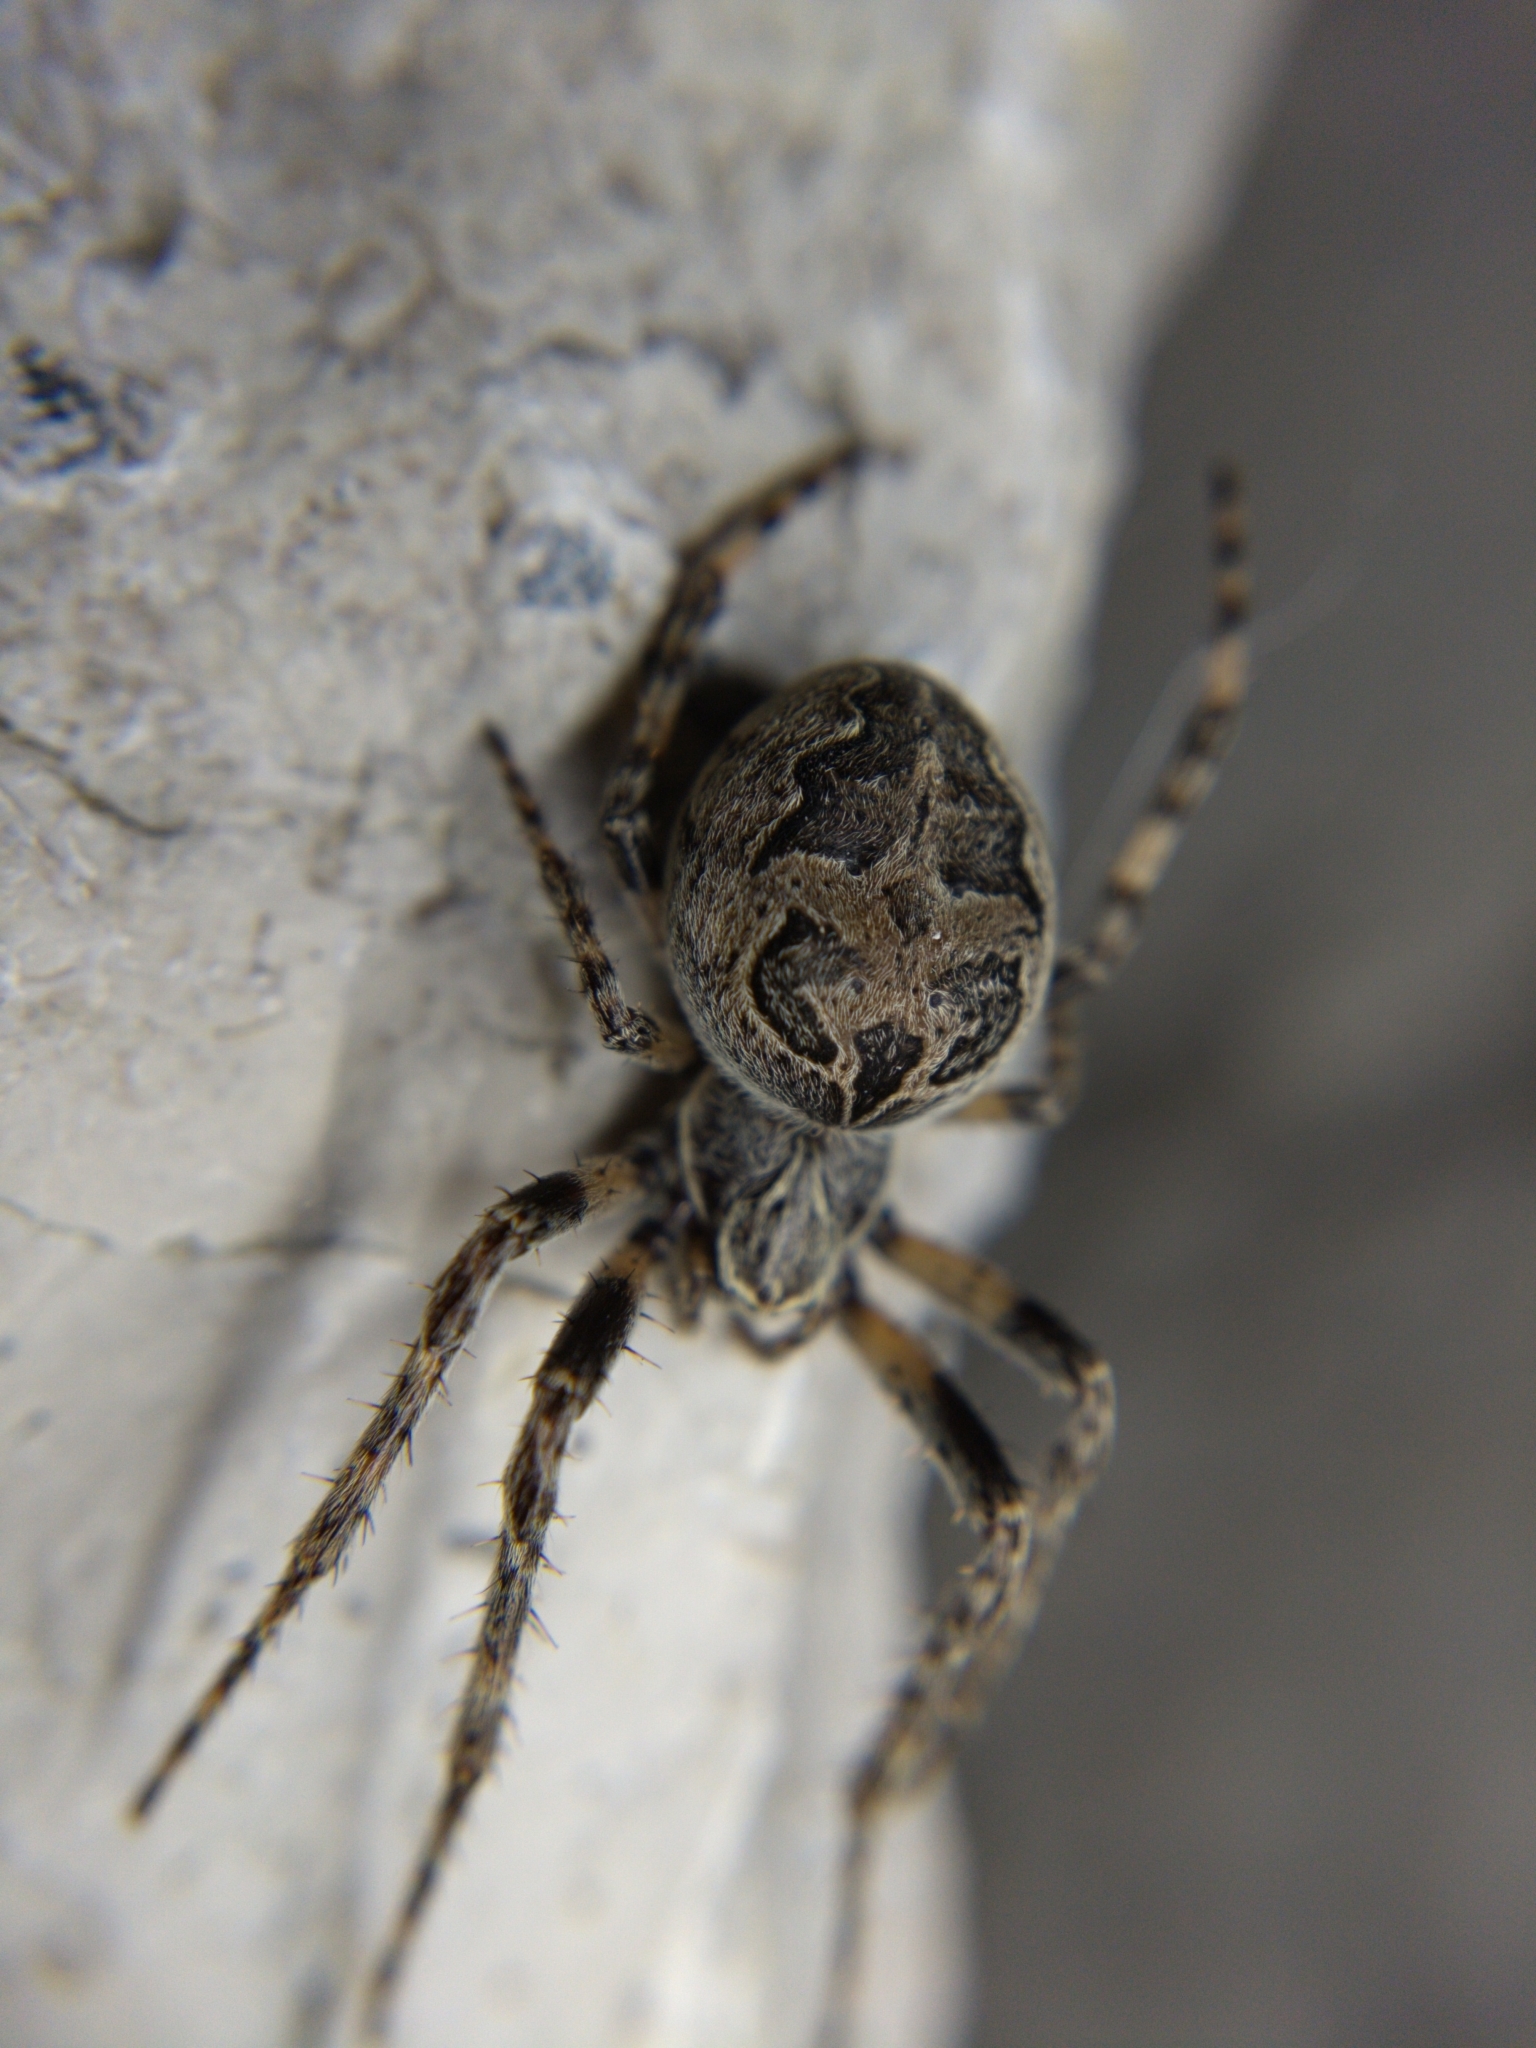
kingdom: Animalia
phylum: Arthropoda
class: Arachnida
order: Araneae
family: Araneidae
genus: Larinioides
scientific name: Larinioides sclopetarius
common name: Bridge orbweaver
